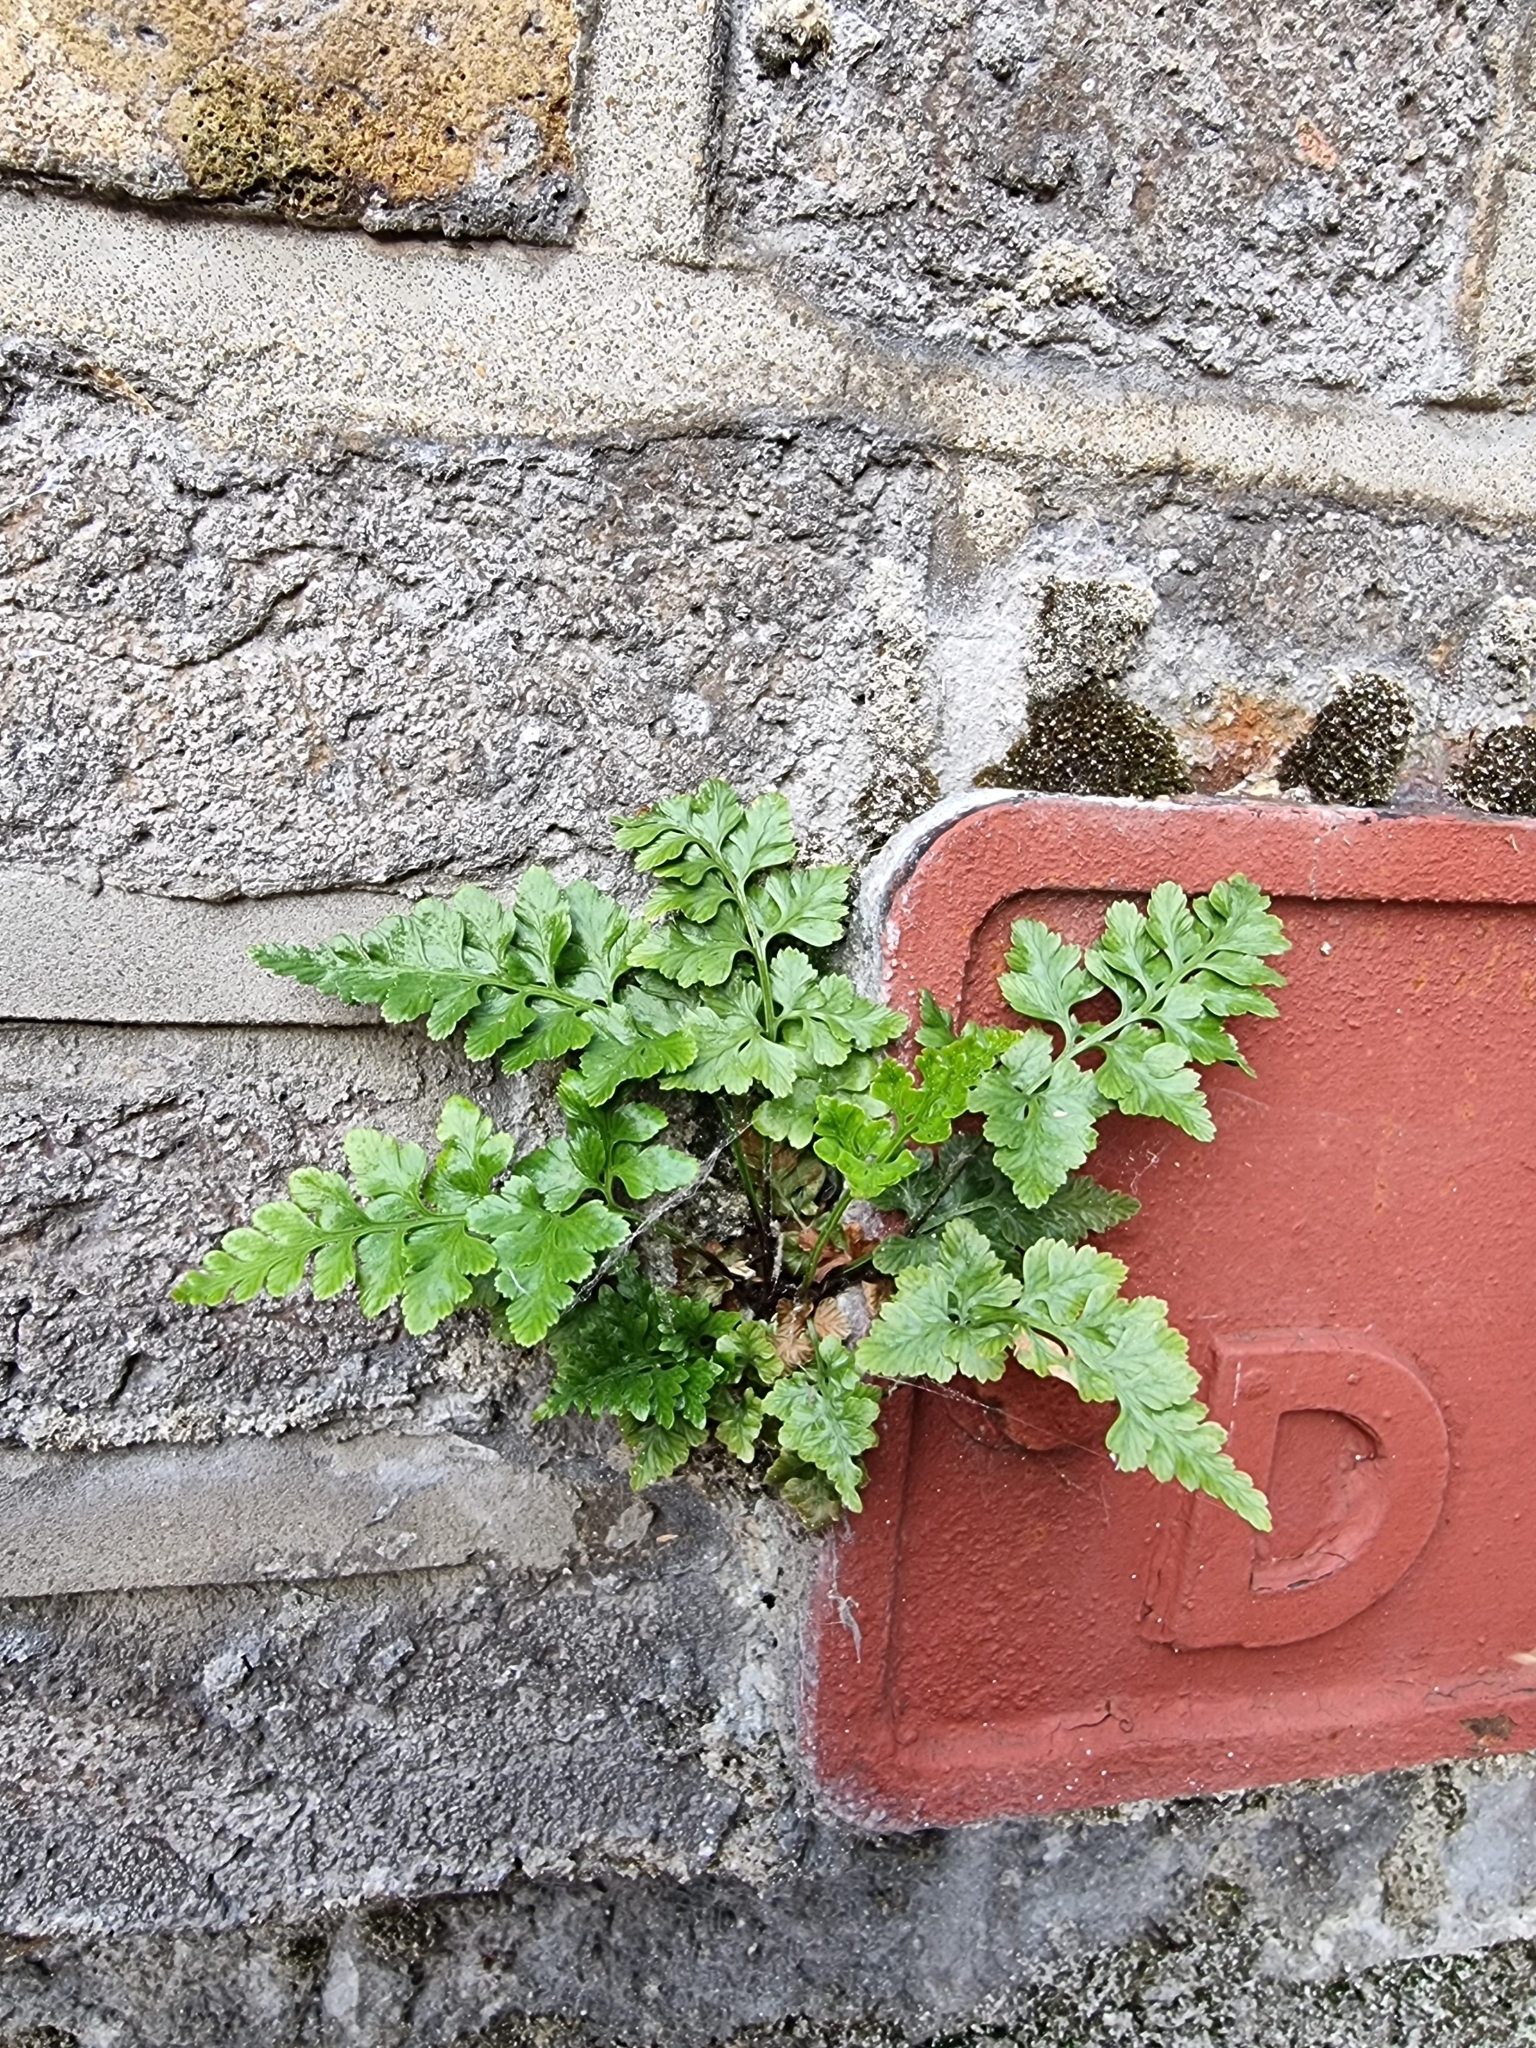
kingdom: Plantae
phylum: Tracheophyta
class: Polypodiopsida
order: Polypodiales
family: Aspleniaceae
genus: Asplenium
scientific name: Asplenium adiantum-nigrum
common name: Black spleenwort
